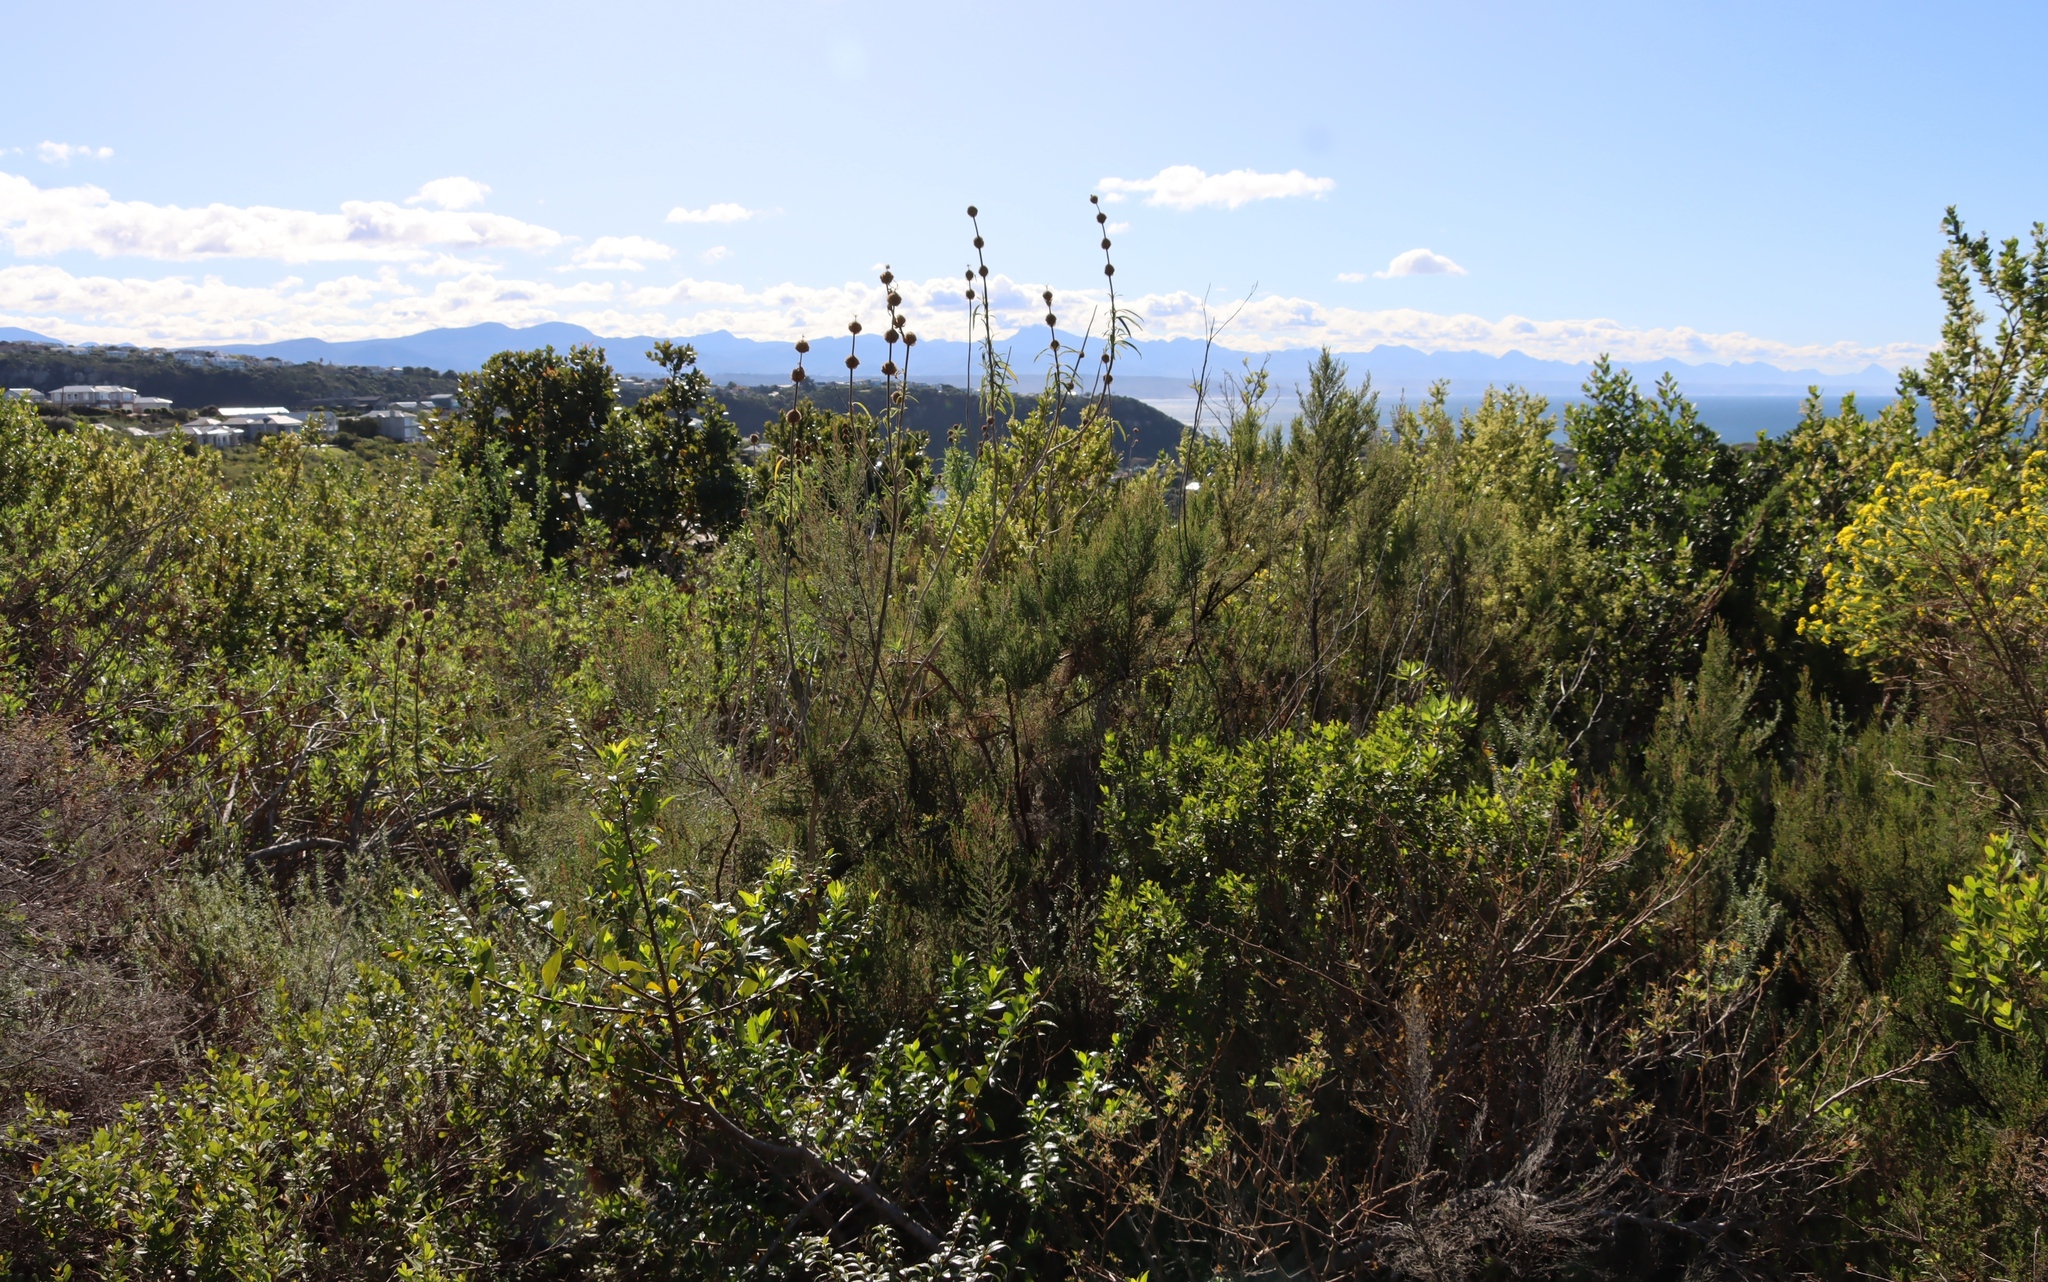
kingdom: Plantae
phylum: Tracheophyta
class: Magnoliopsida
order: Lamiales
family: Lamiaceae
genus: Leonotis
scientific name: Leonotis leonurus
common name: Lion's ear
